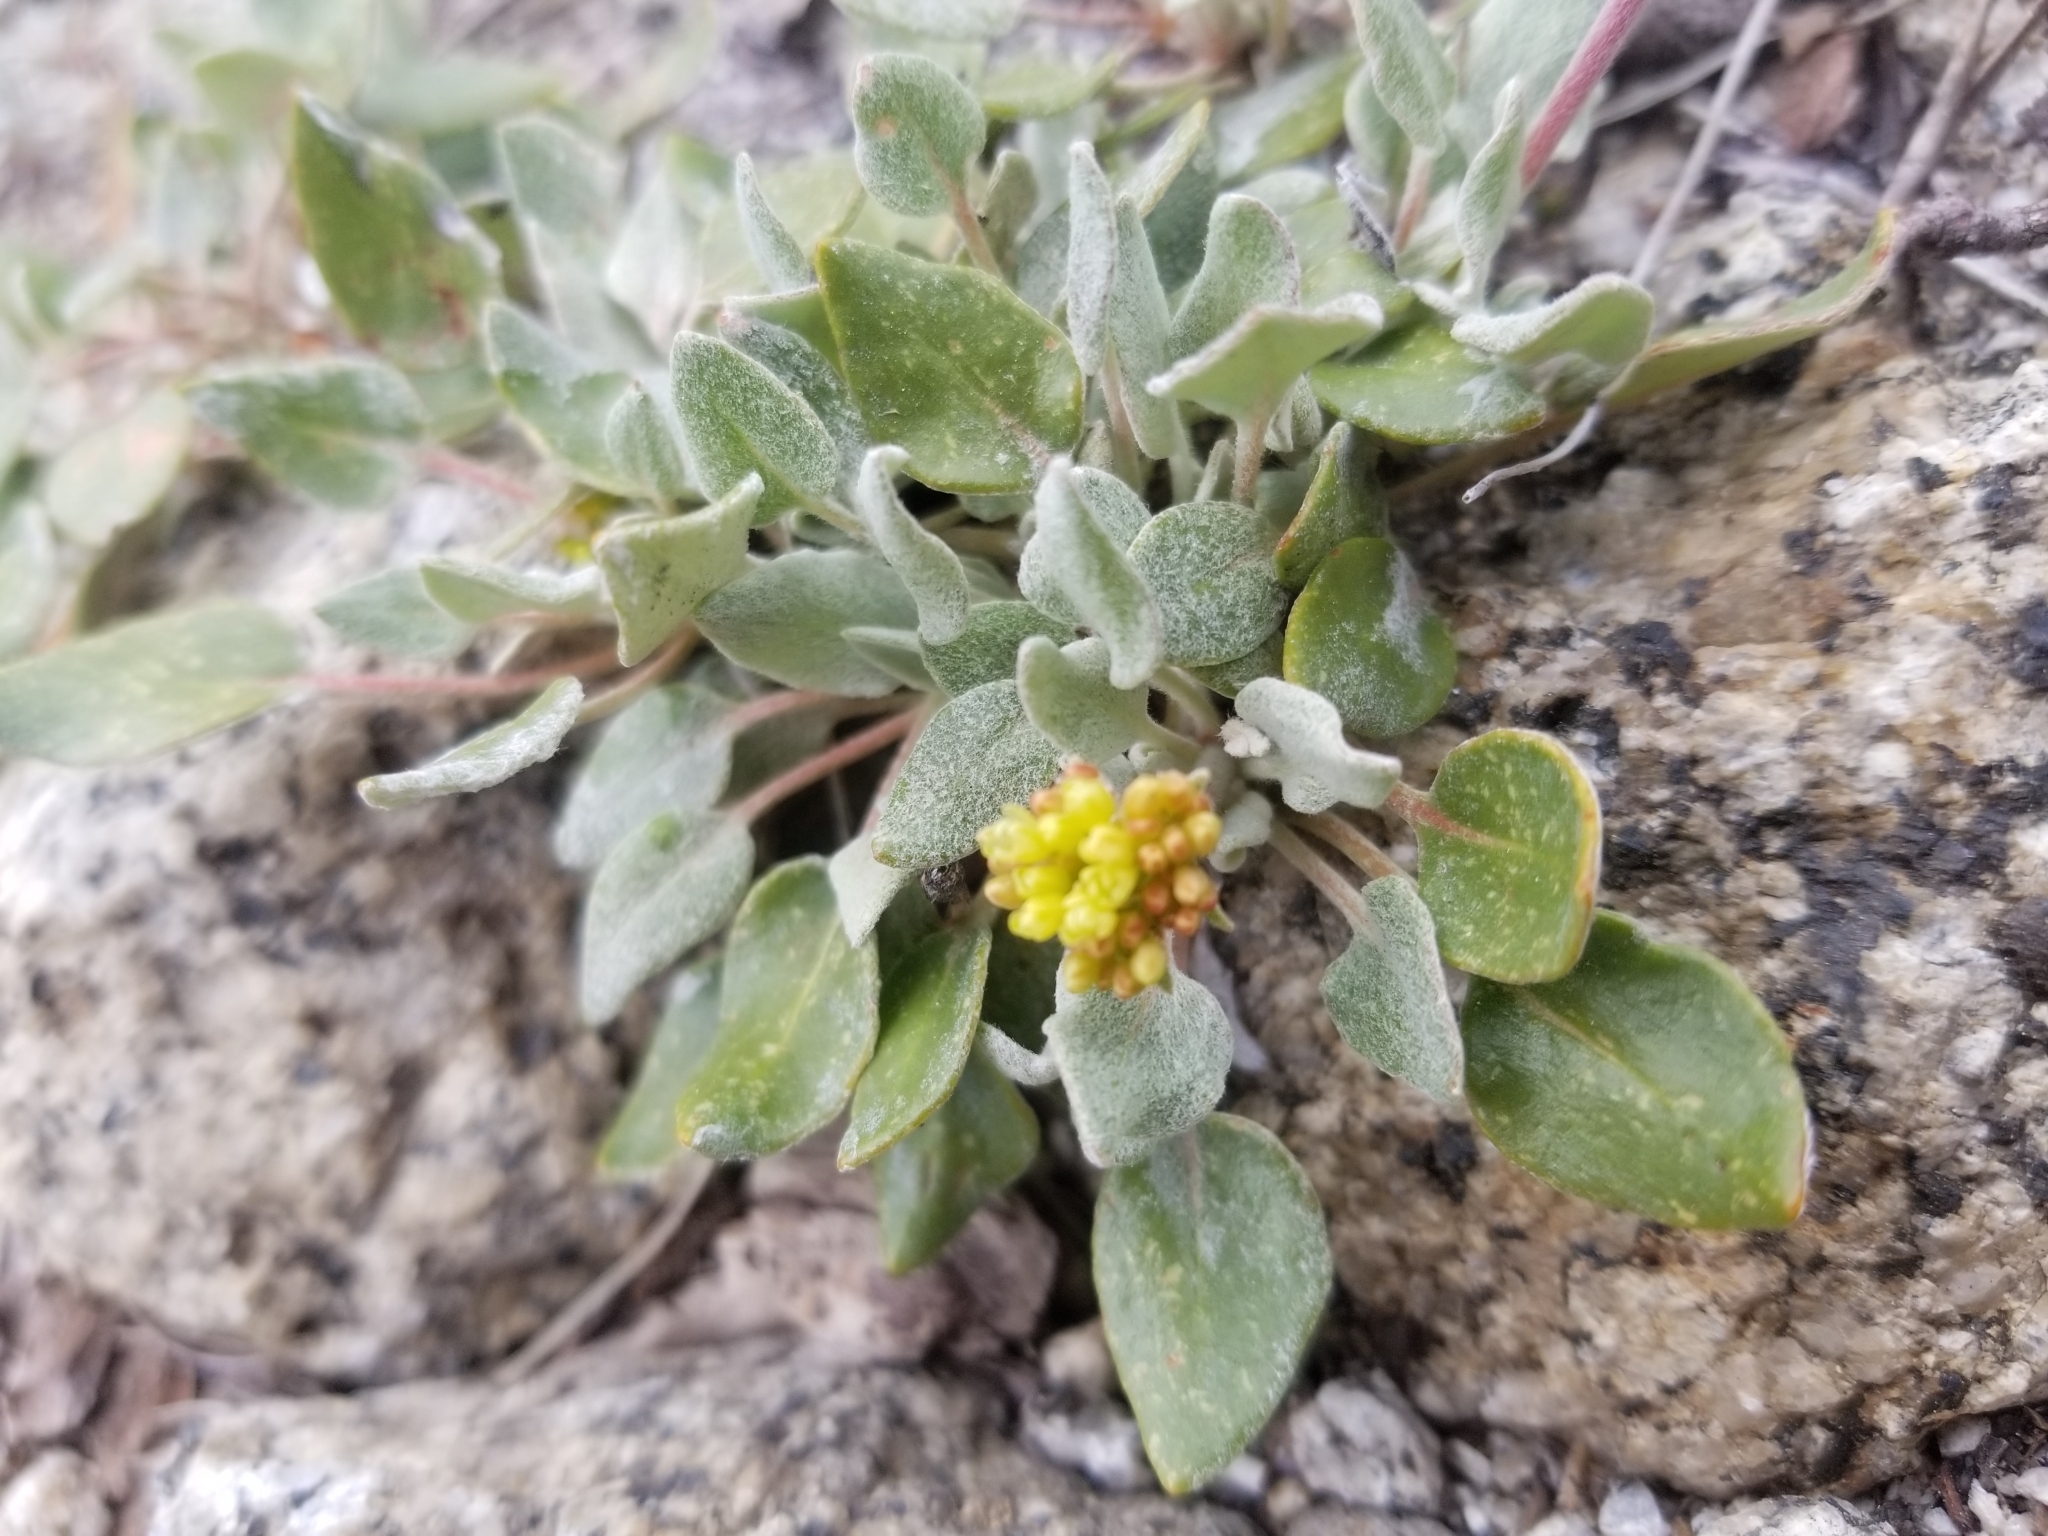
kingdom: Plantae
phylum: Tracheophyta
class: Magnoliopsida
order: Caryophyllales
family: Polygonaceae
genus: Eriogonum
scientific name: Eriogonum incanum
